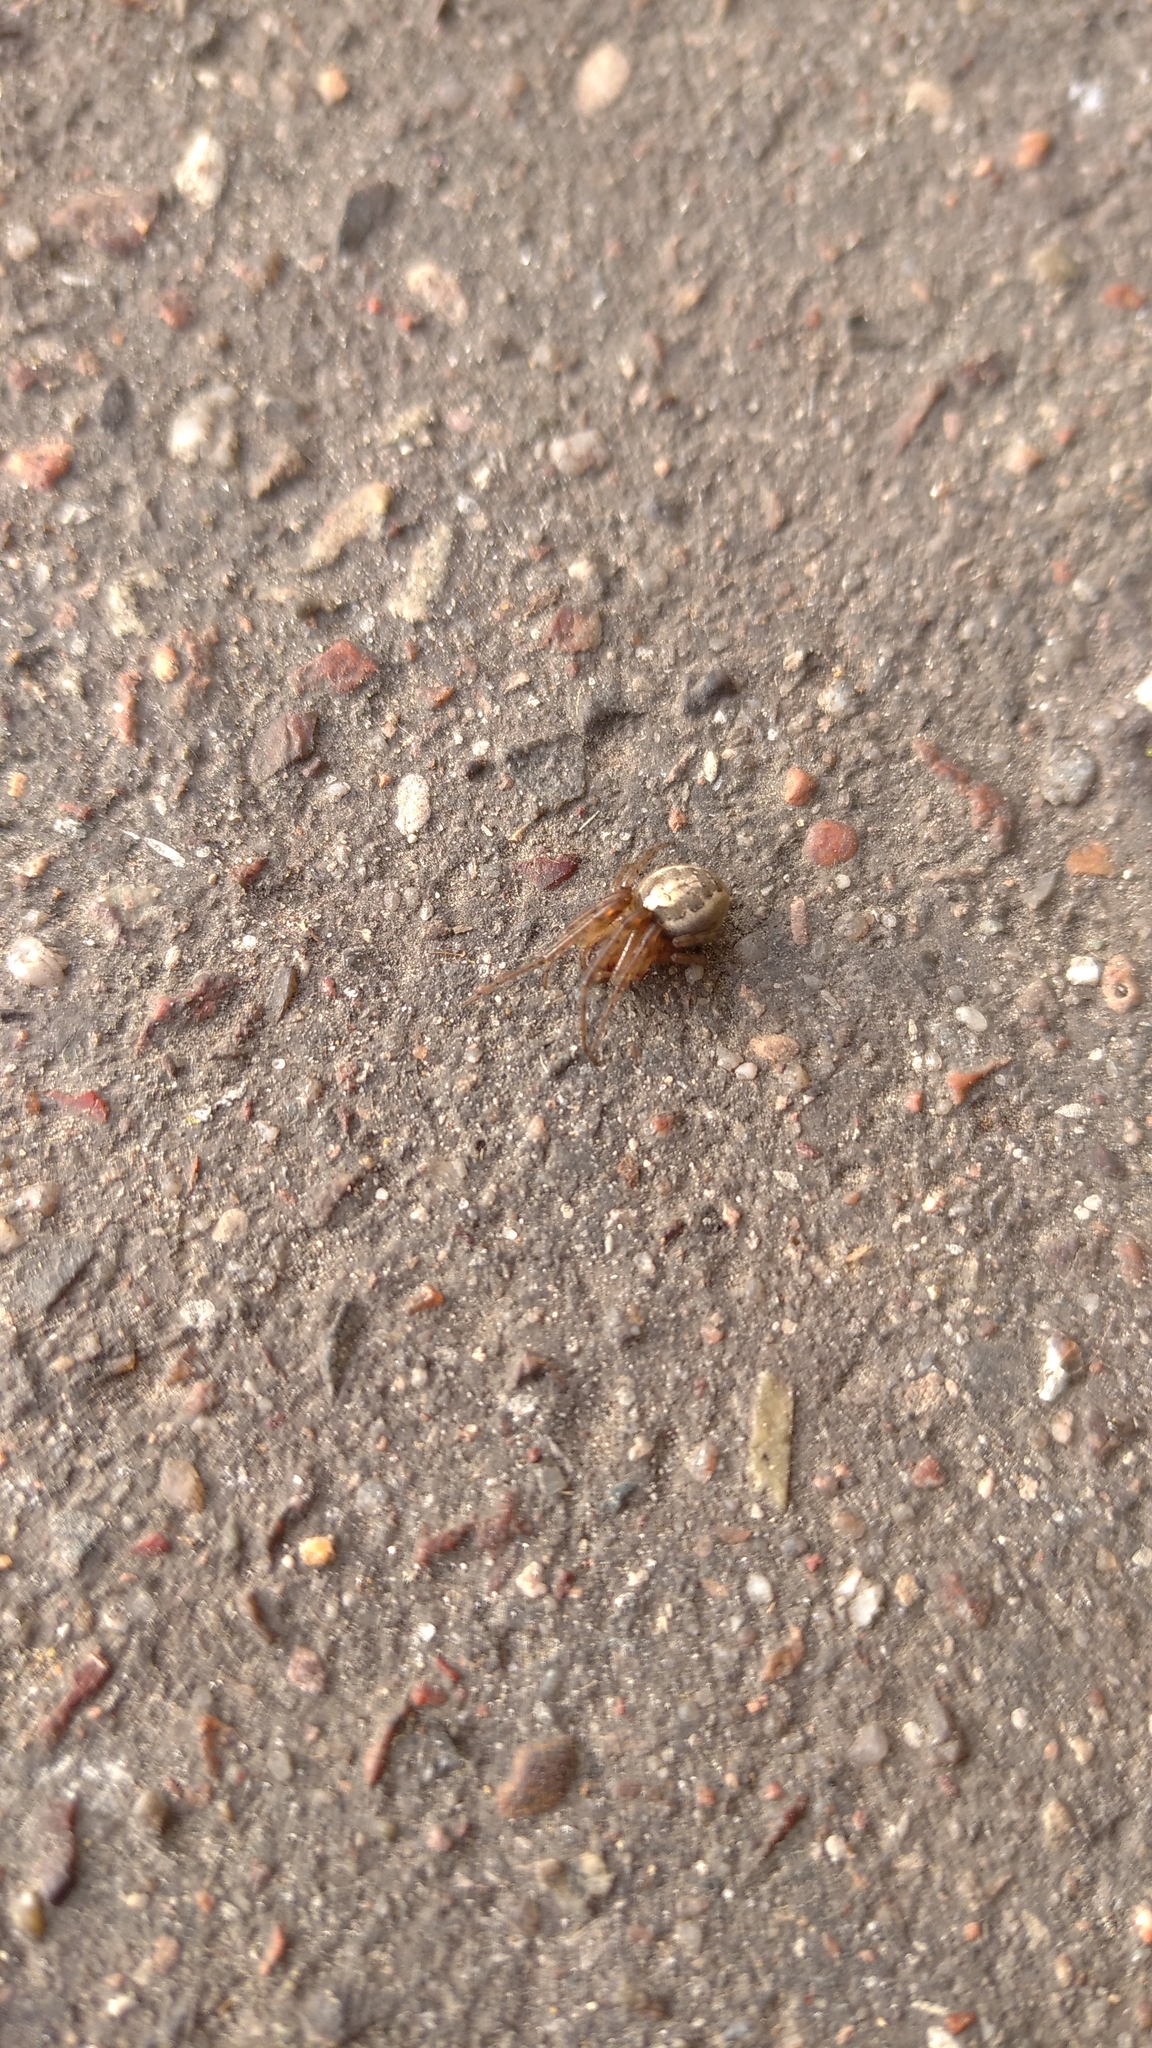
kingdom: Animalia
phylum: Arthropoda
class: Arachnida
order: Araneae
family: Araneidae
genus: Zygiella
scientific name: Zygiella x-notata
